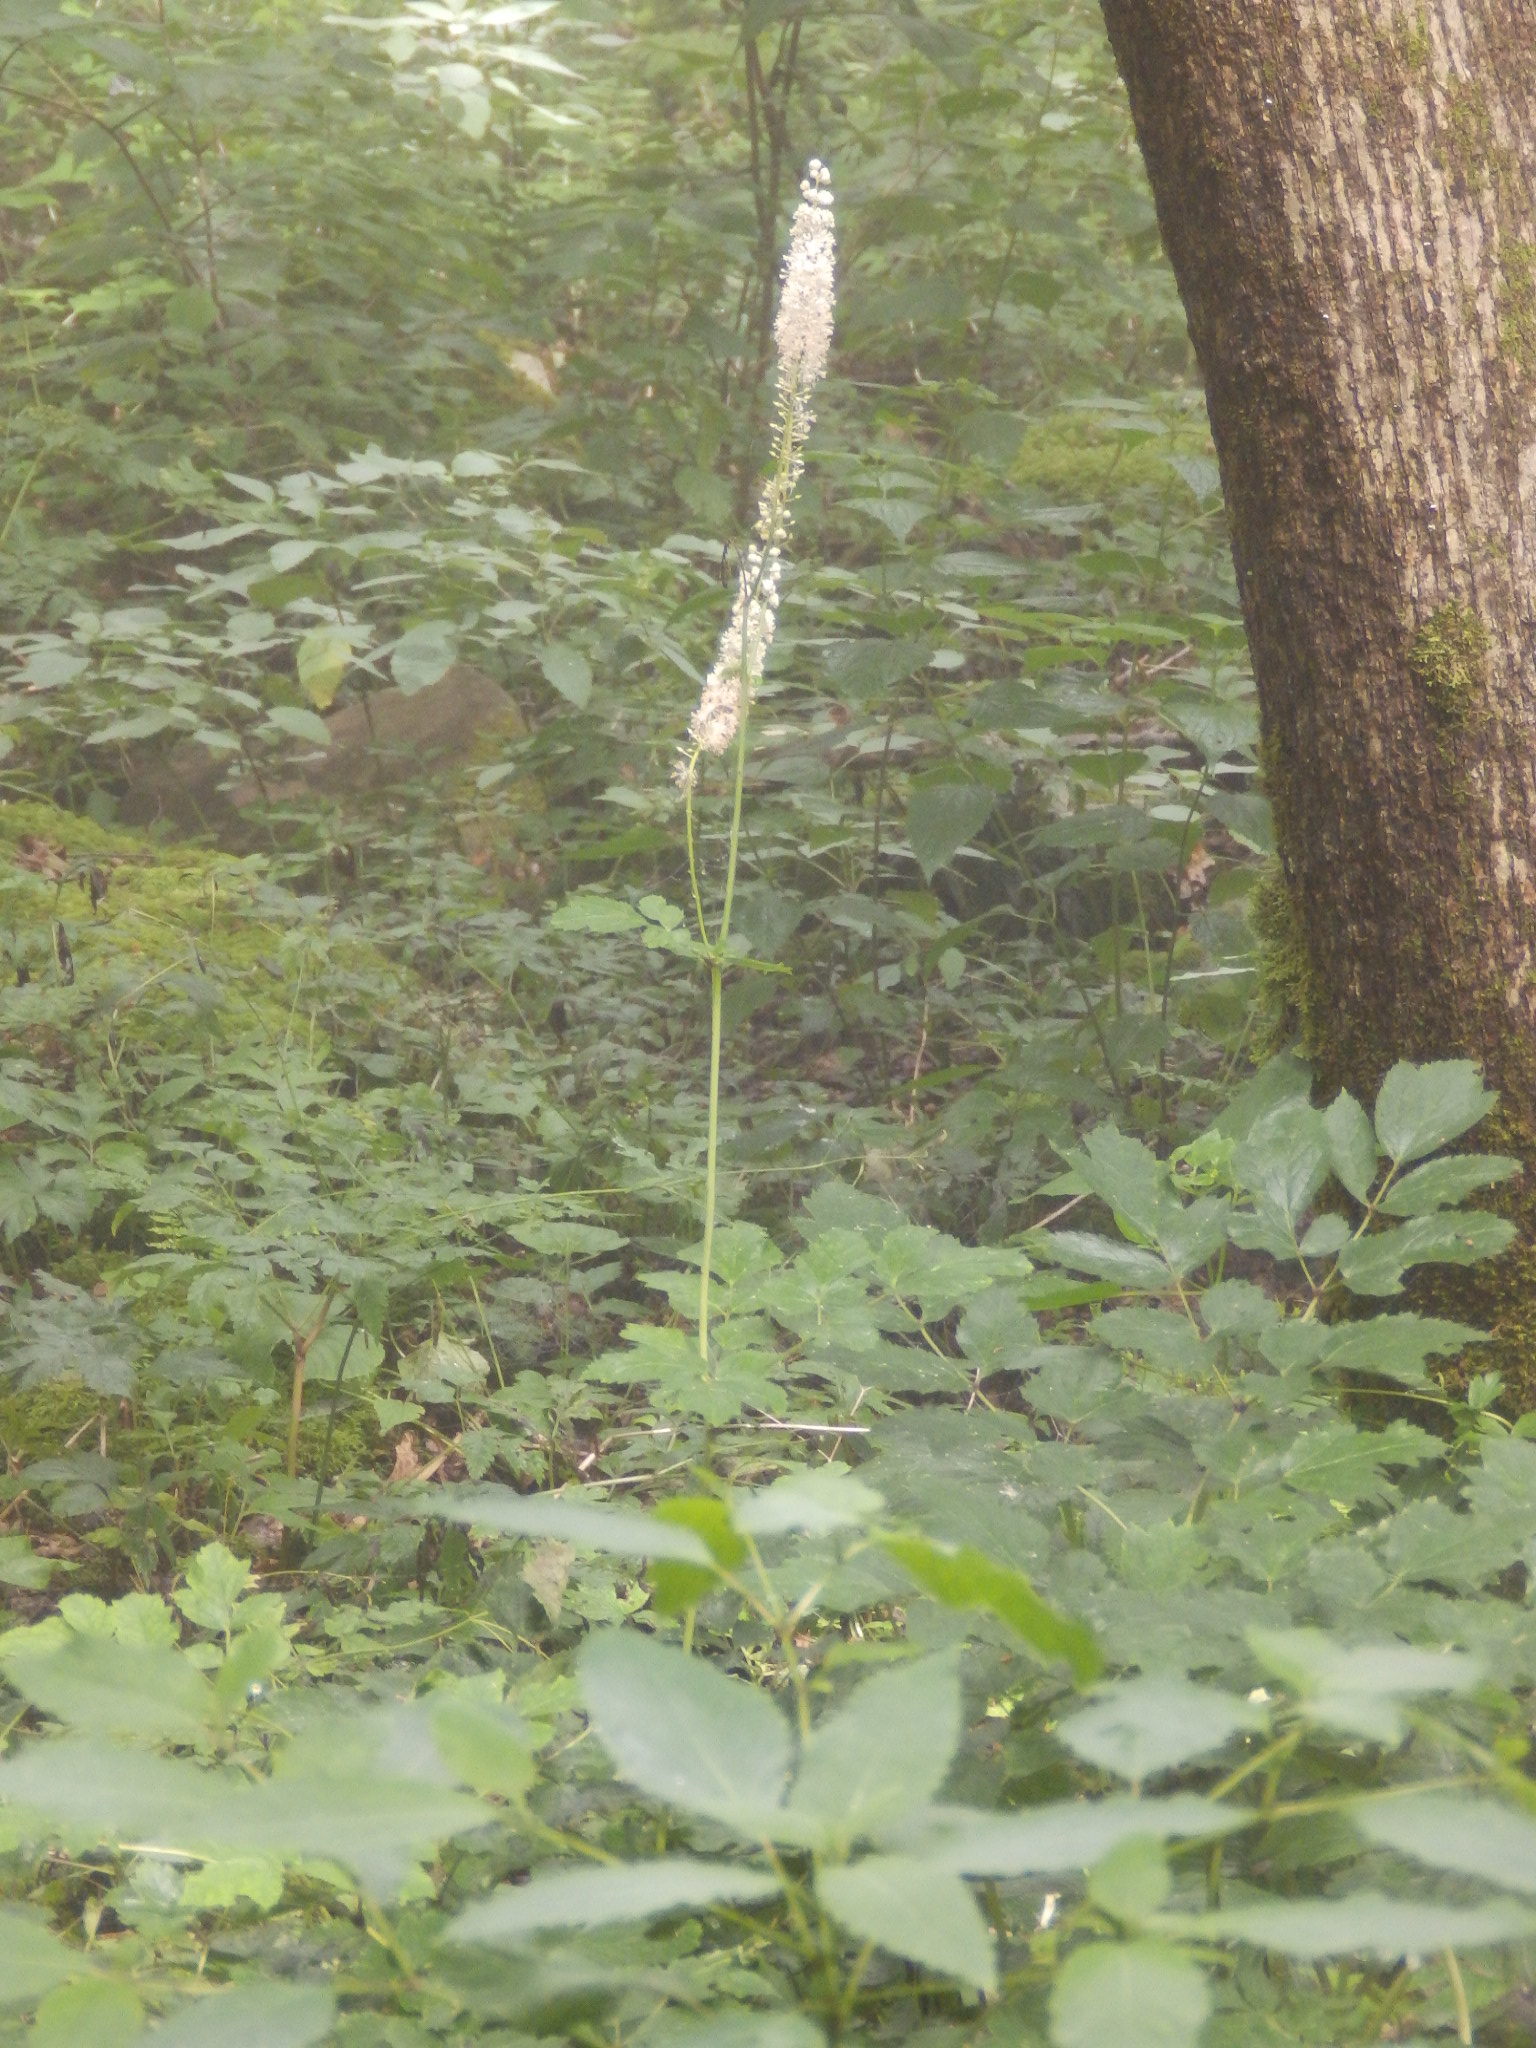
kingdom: Plantae
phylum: Tracheophyta
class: Magnoliopsida
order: Ranunculales
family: Ranunculaceae
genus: Actaea
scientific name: Actaea racemosa
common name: Black cohosh
